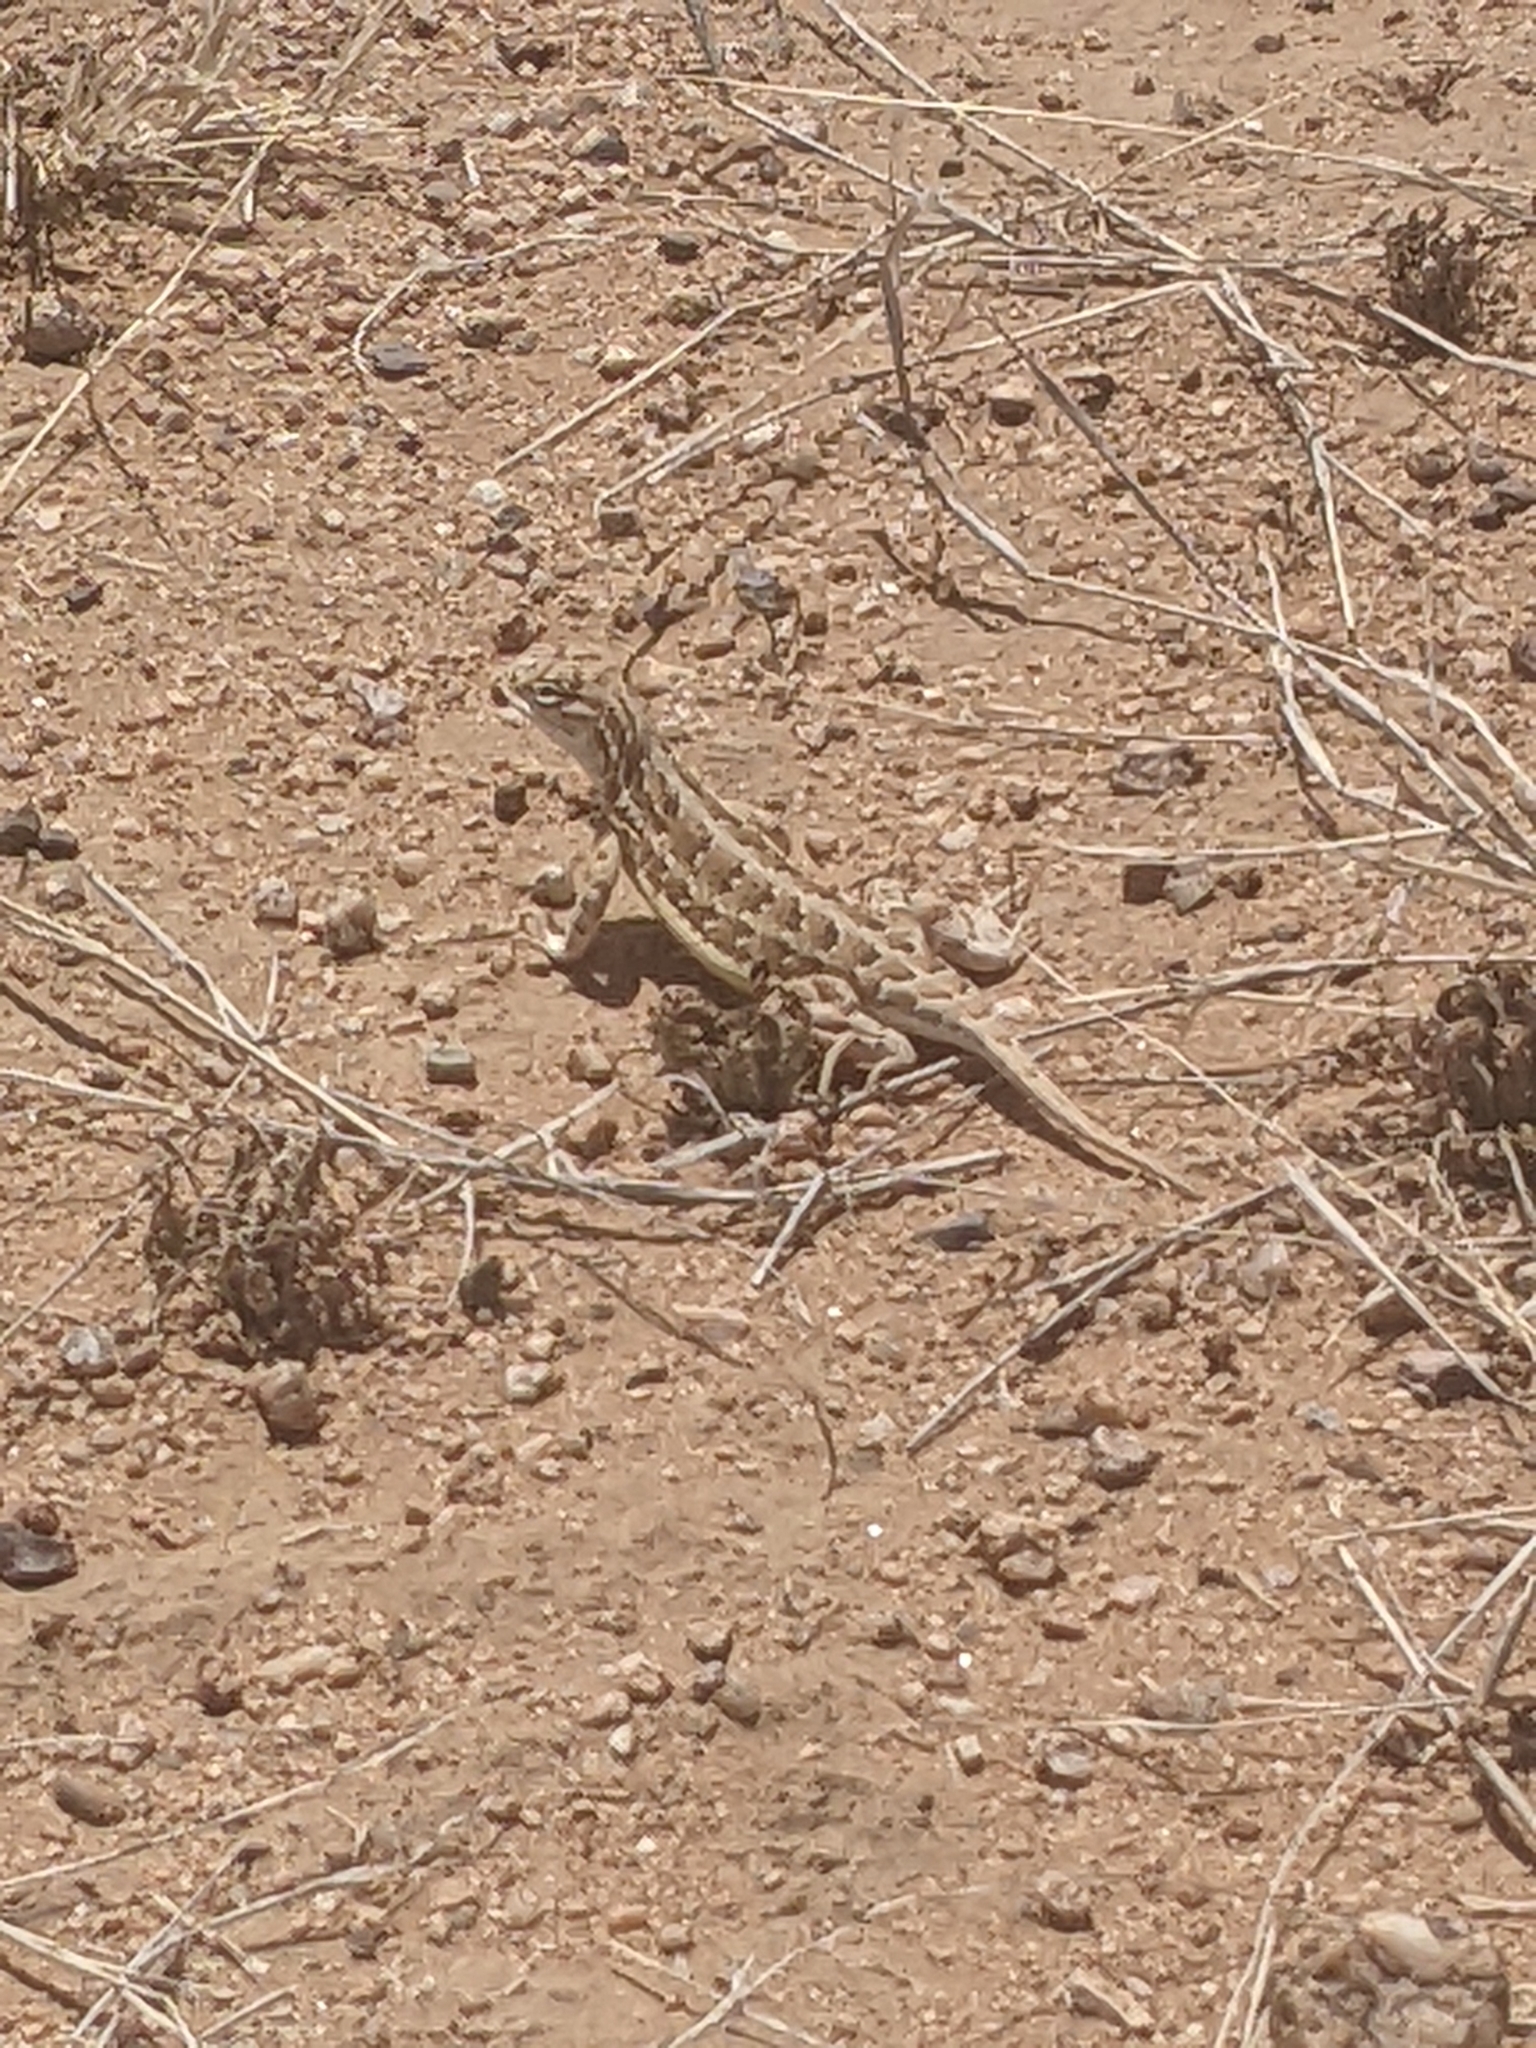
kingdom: Animalia
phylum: Chordata
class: Squamata
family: Phrynosomatidae
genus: Holbrookia
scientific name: Holbrookia maculata
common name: Lesser earless lizard
